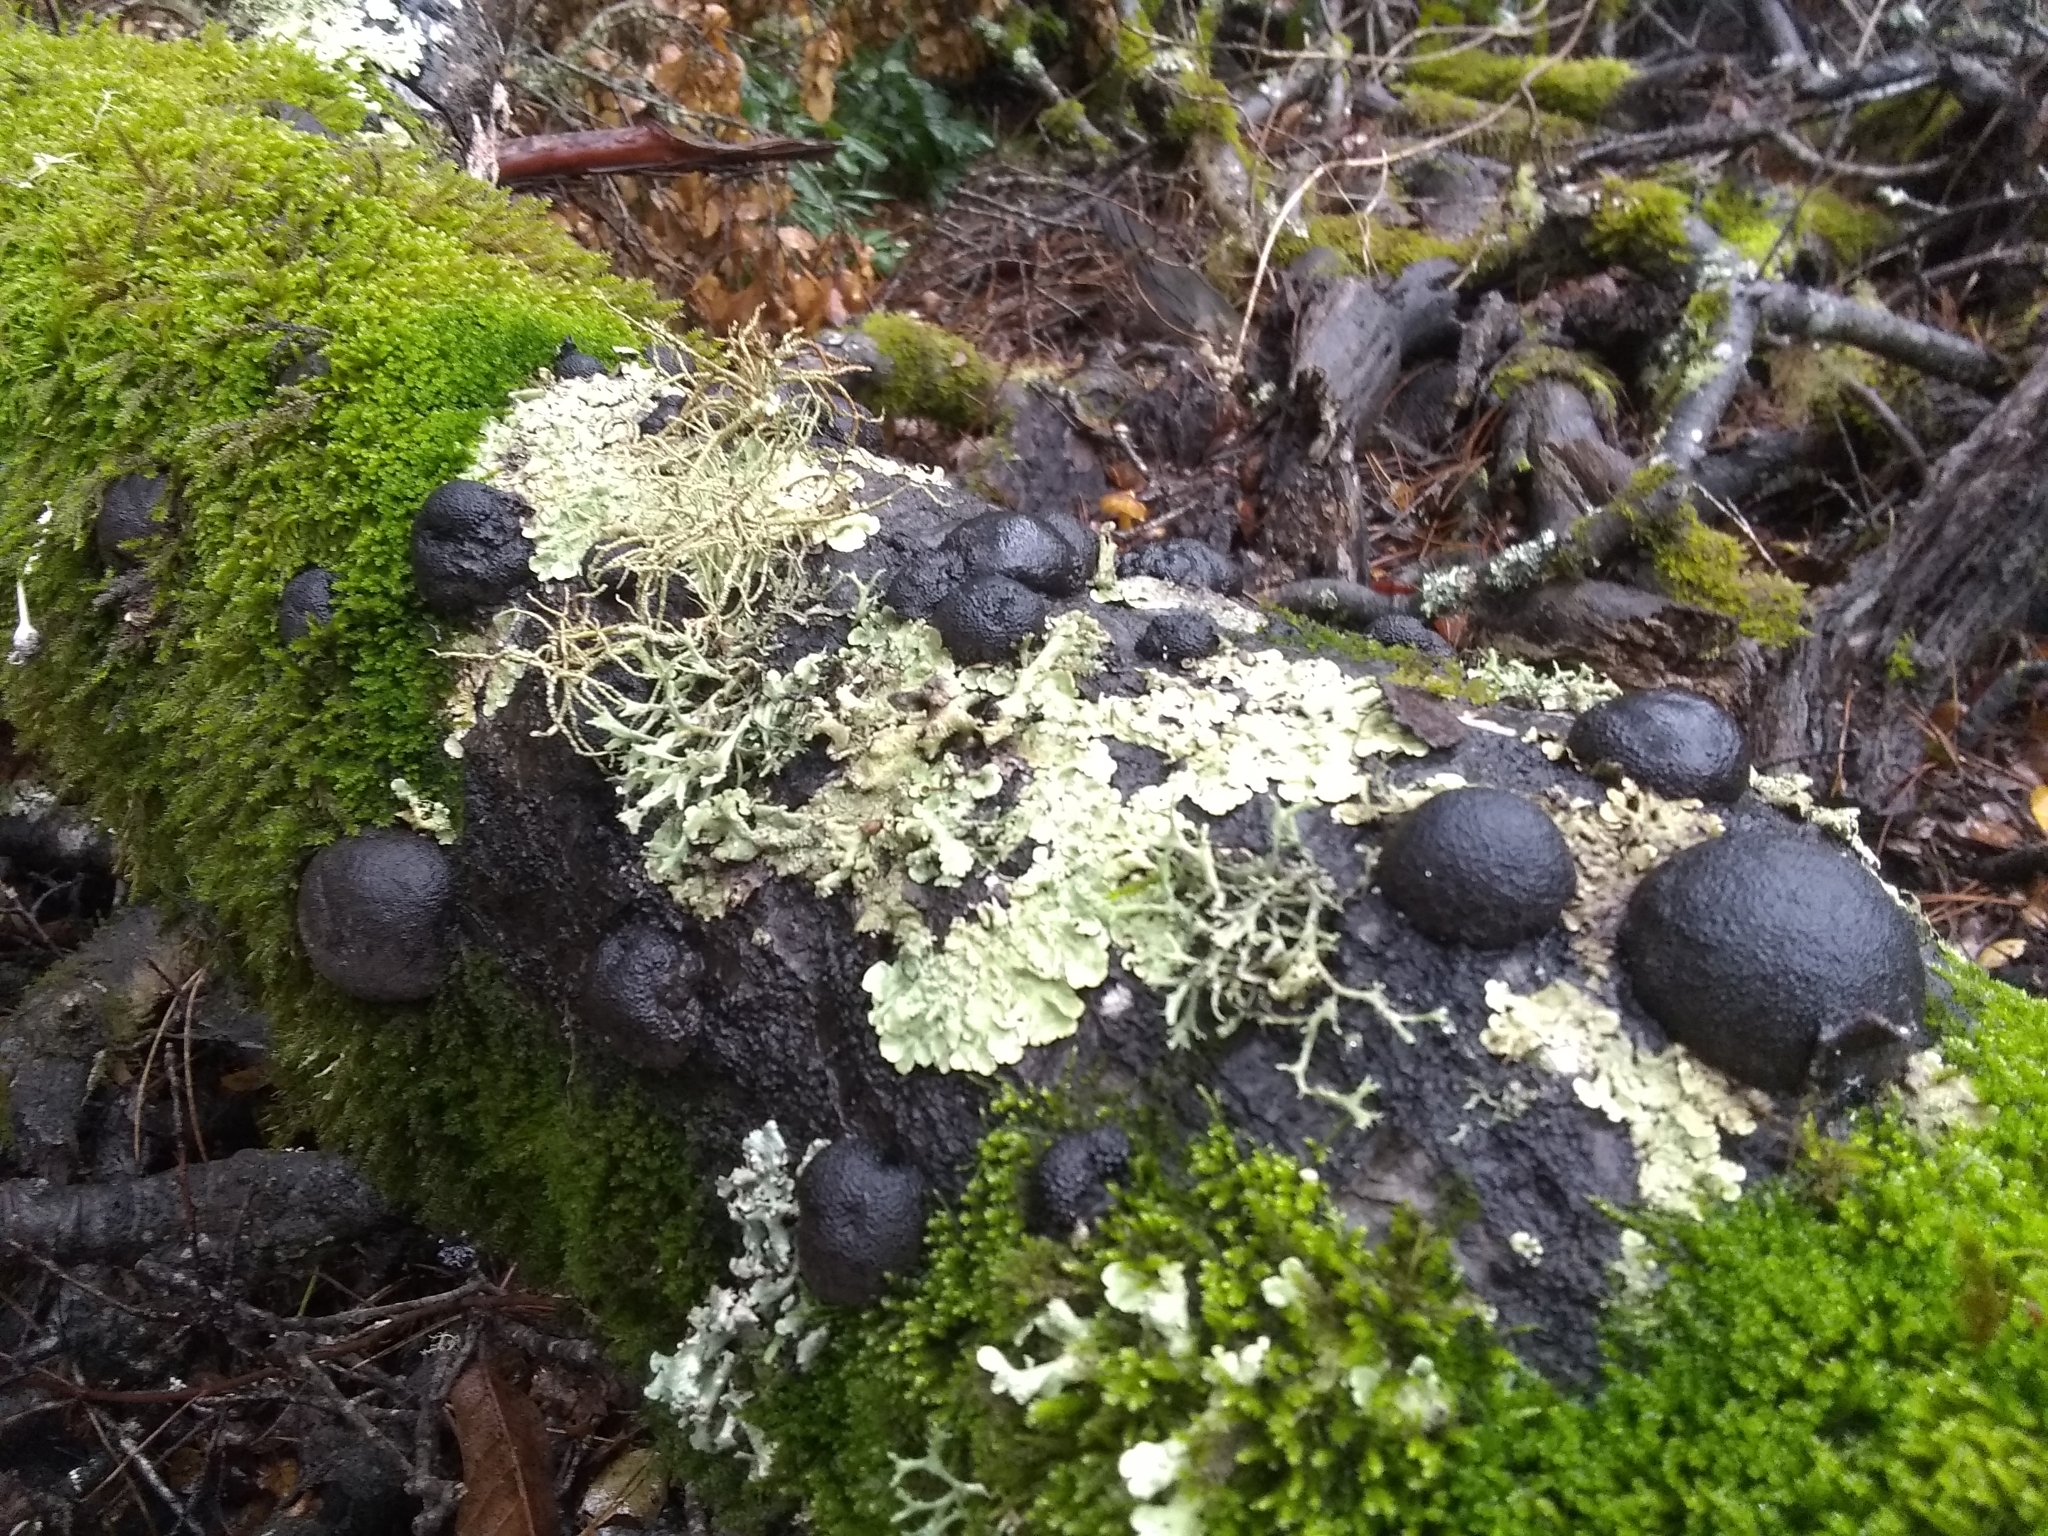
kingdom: Fungi
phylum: Ascomycota
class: Sordariomycetes
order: Xylariales
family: Hypoxylaceae
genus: Annulohypoxylon
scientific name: Annulohypoxylon thouarsianum
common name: Cramp balls
